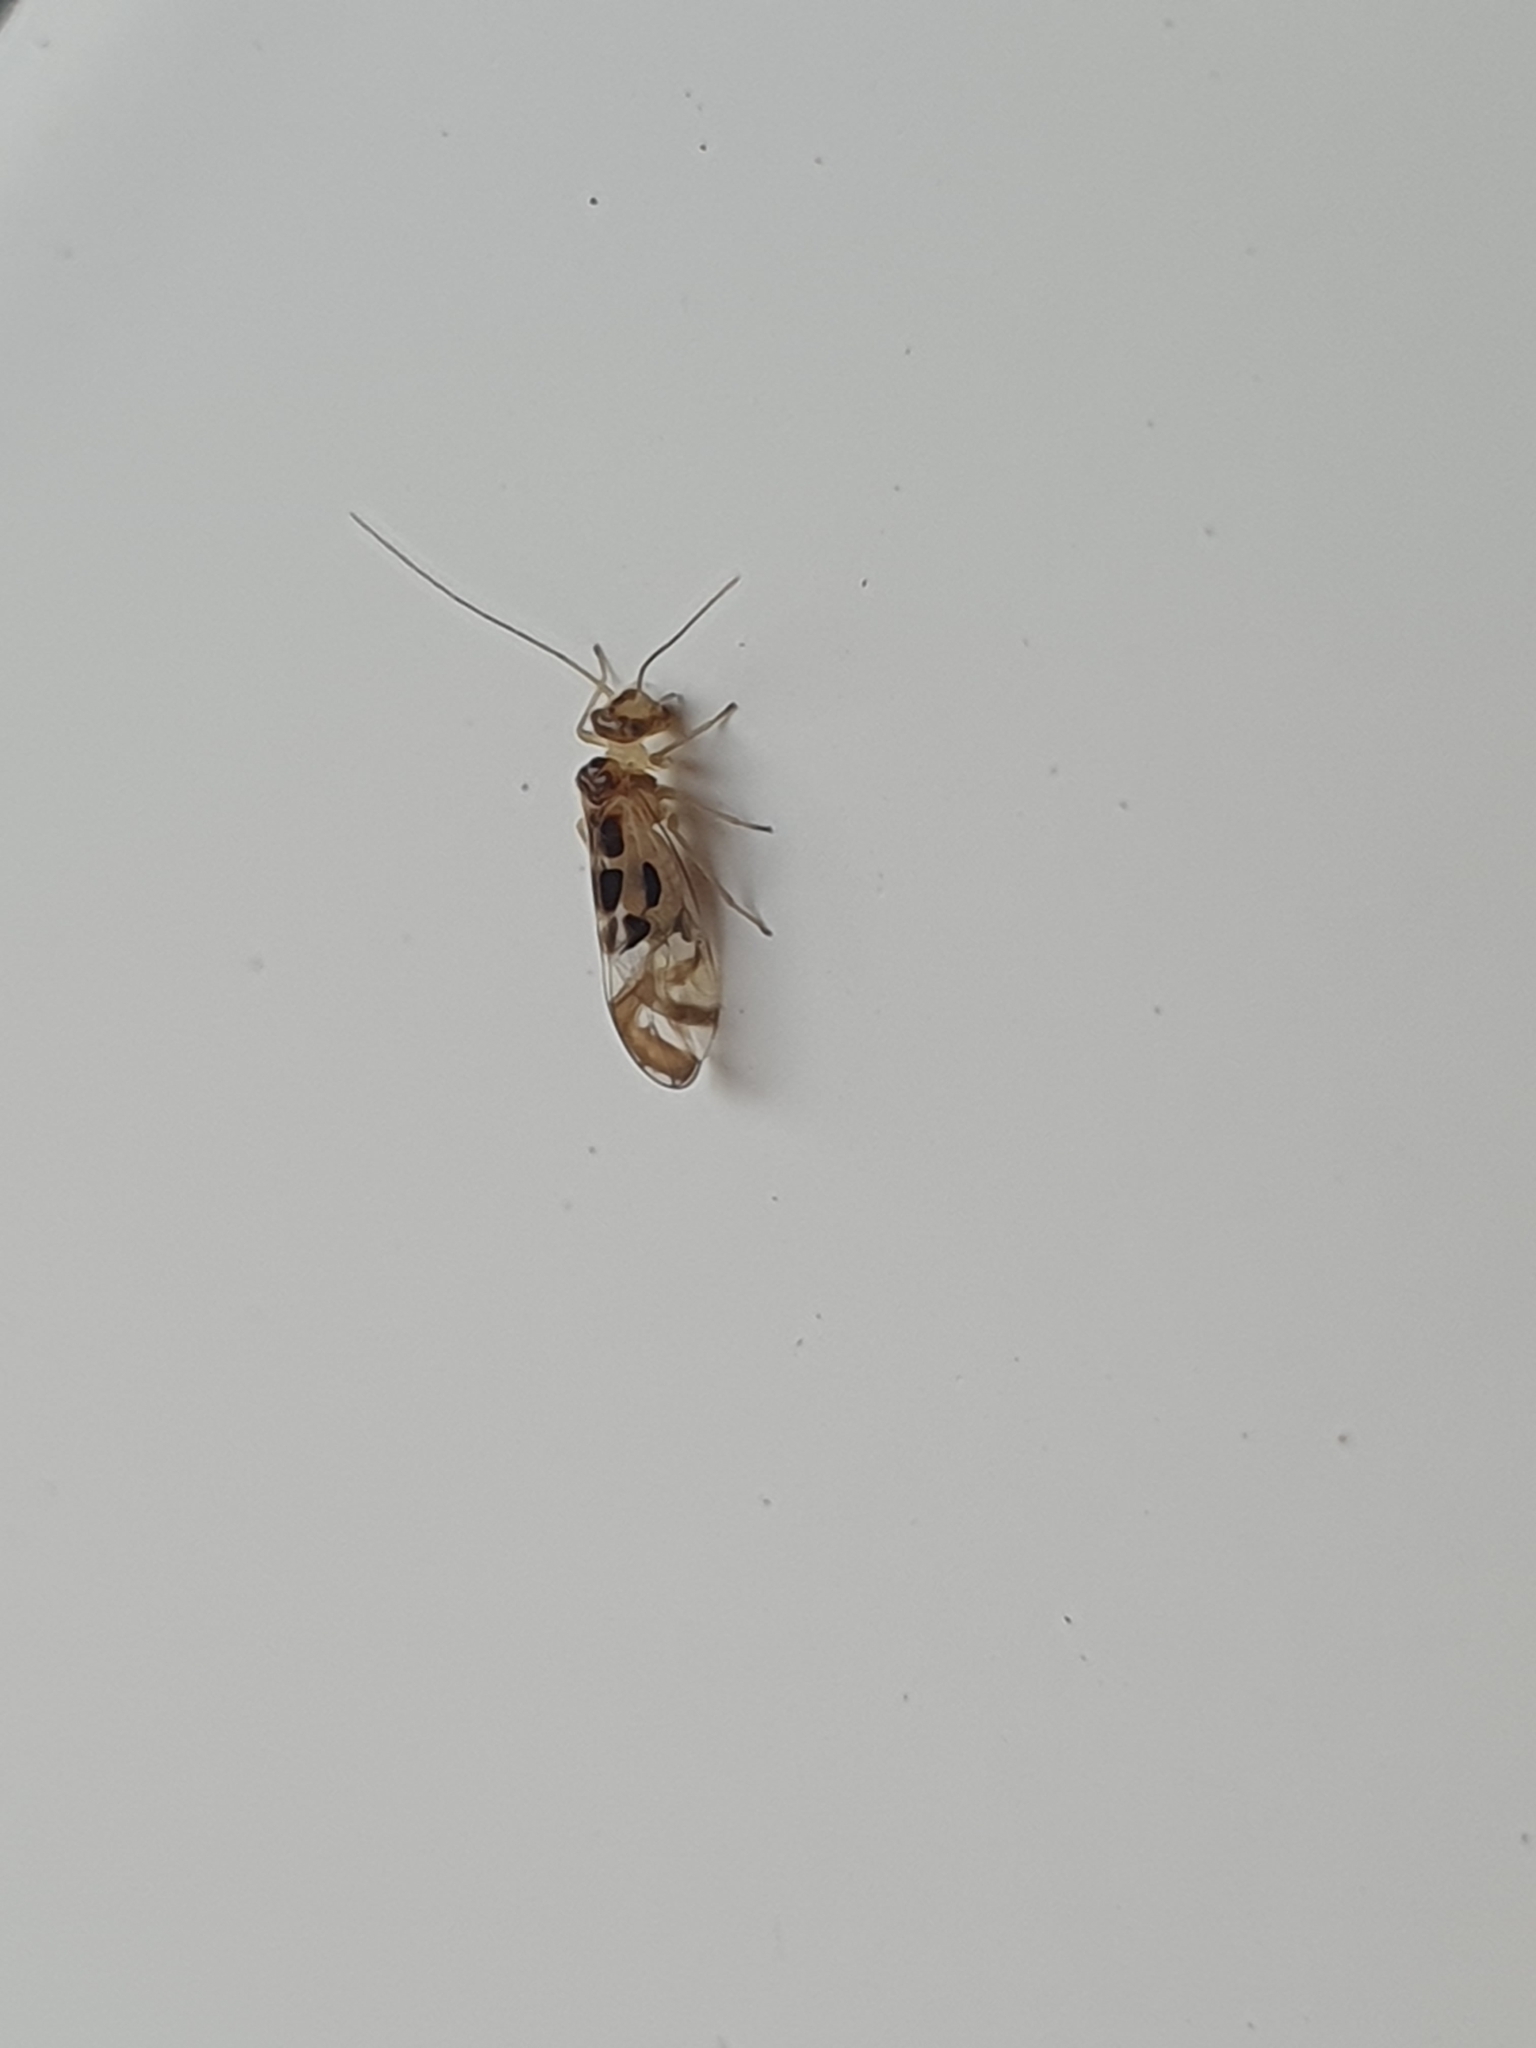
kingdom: Animalia
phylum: Arthropoda
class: Insecta
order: Psocodea
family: Stenopsocidae
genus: Graphopsocus
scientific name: Graphopsocus cruciatus
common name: Lizard bark louse
